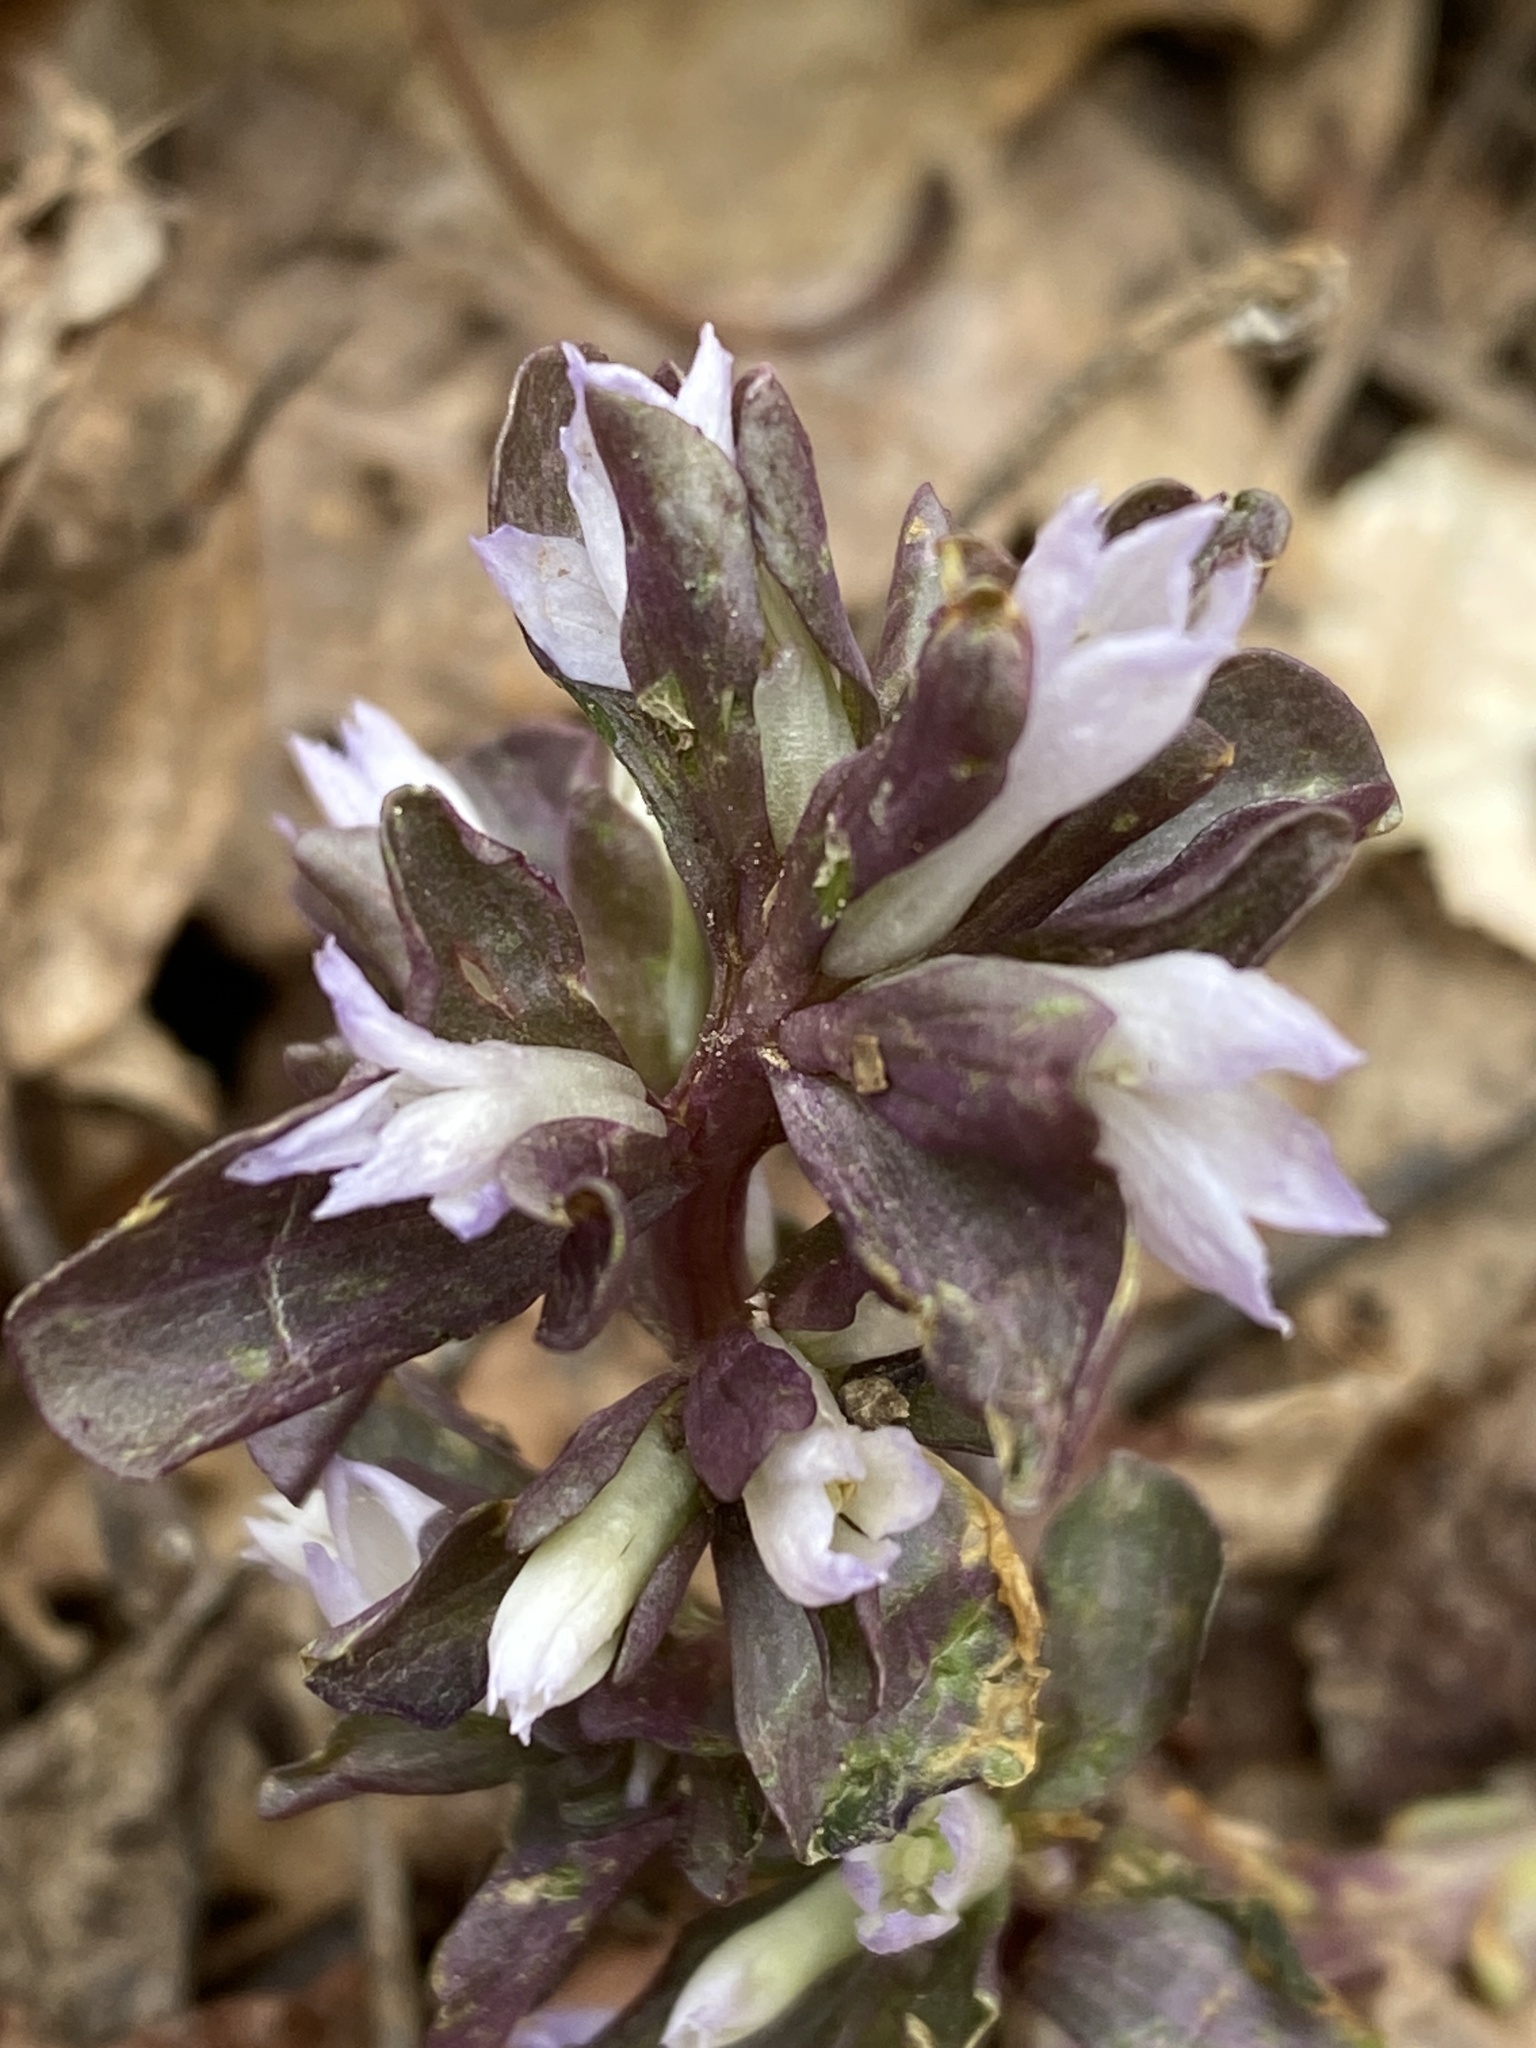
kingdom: Plantae
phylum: Tracheophyta
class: Magnoliopsida
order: Gentianales
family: Gentianaceae
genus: Obolaria
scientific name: Obolaria virginica
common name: Pennywort
